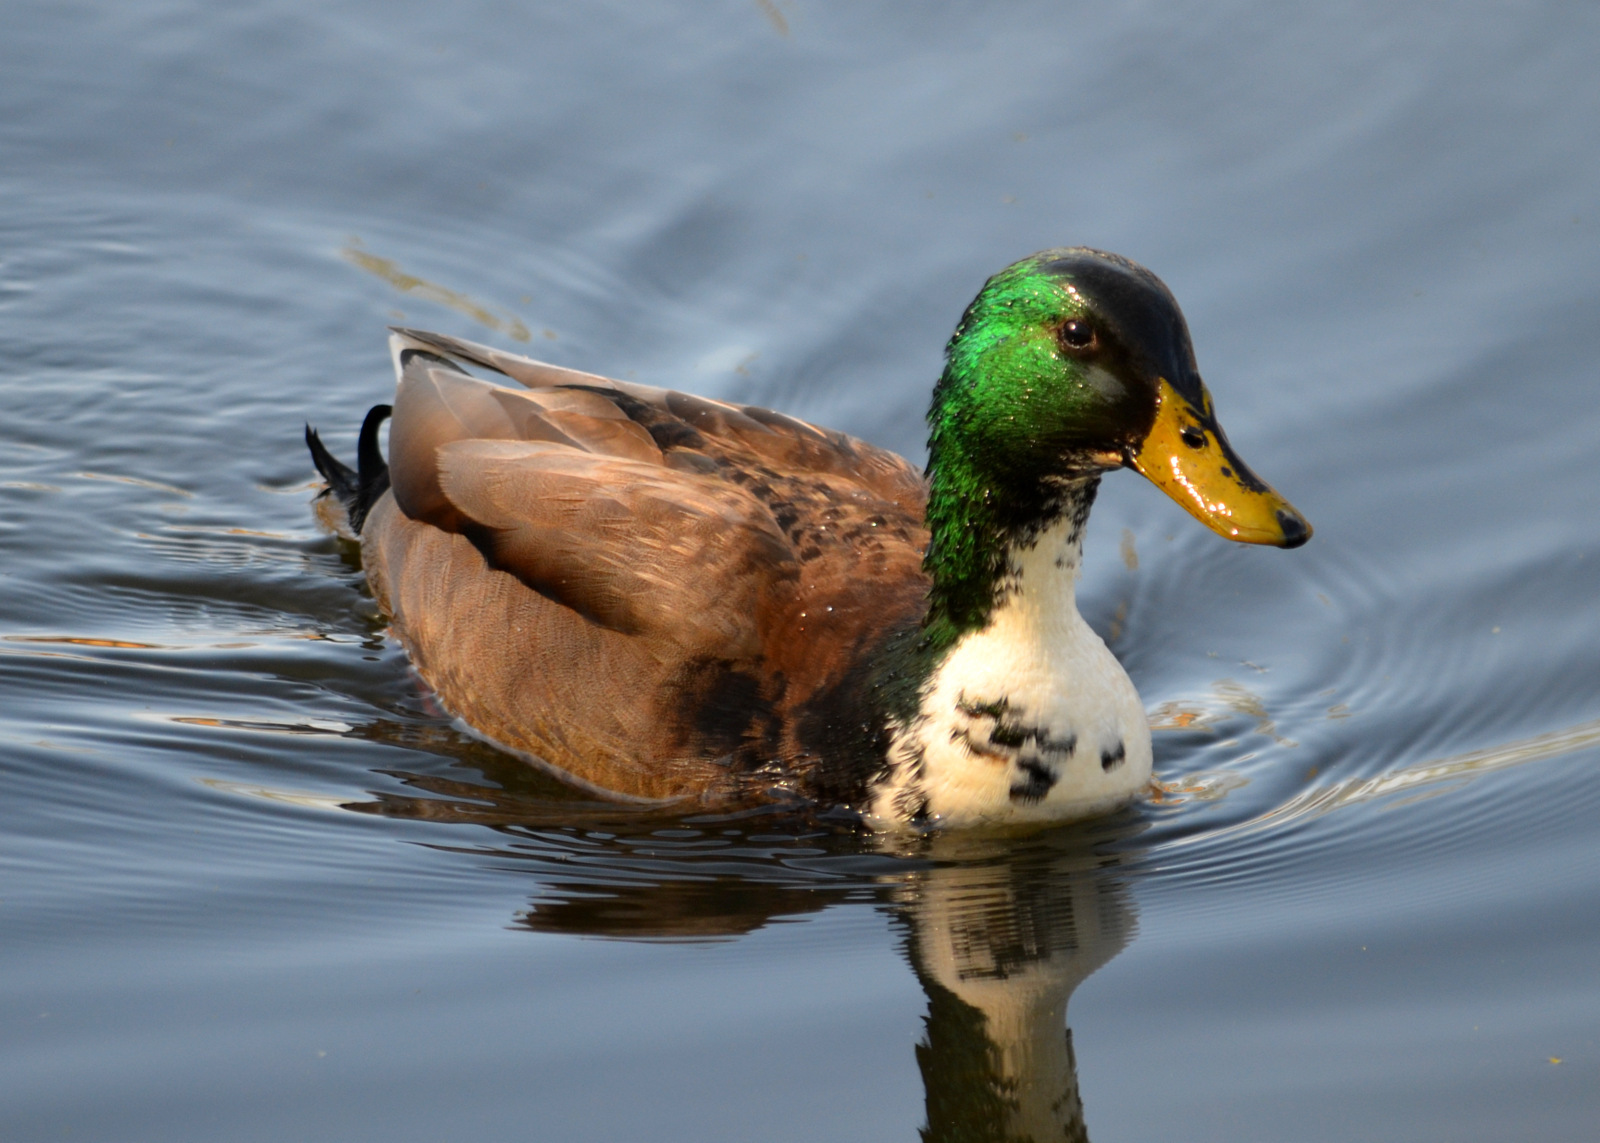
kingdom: Animalia
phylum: Chordata
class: Aves
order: Anseriformes
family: Anatidae
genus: Anas
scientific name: Anas platyrhynchos
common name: Mallard
